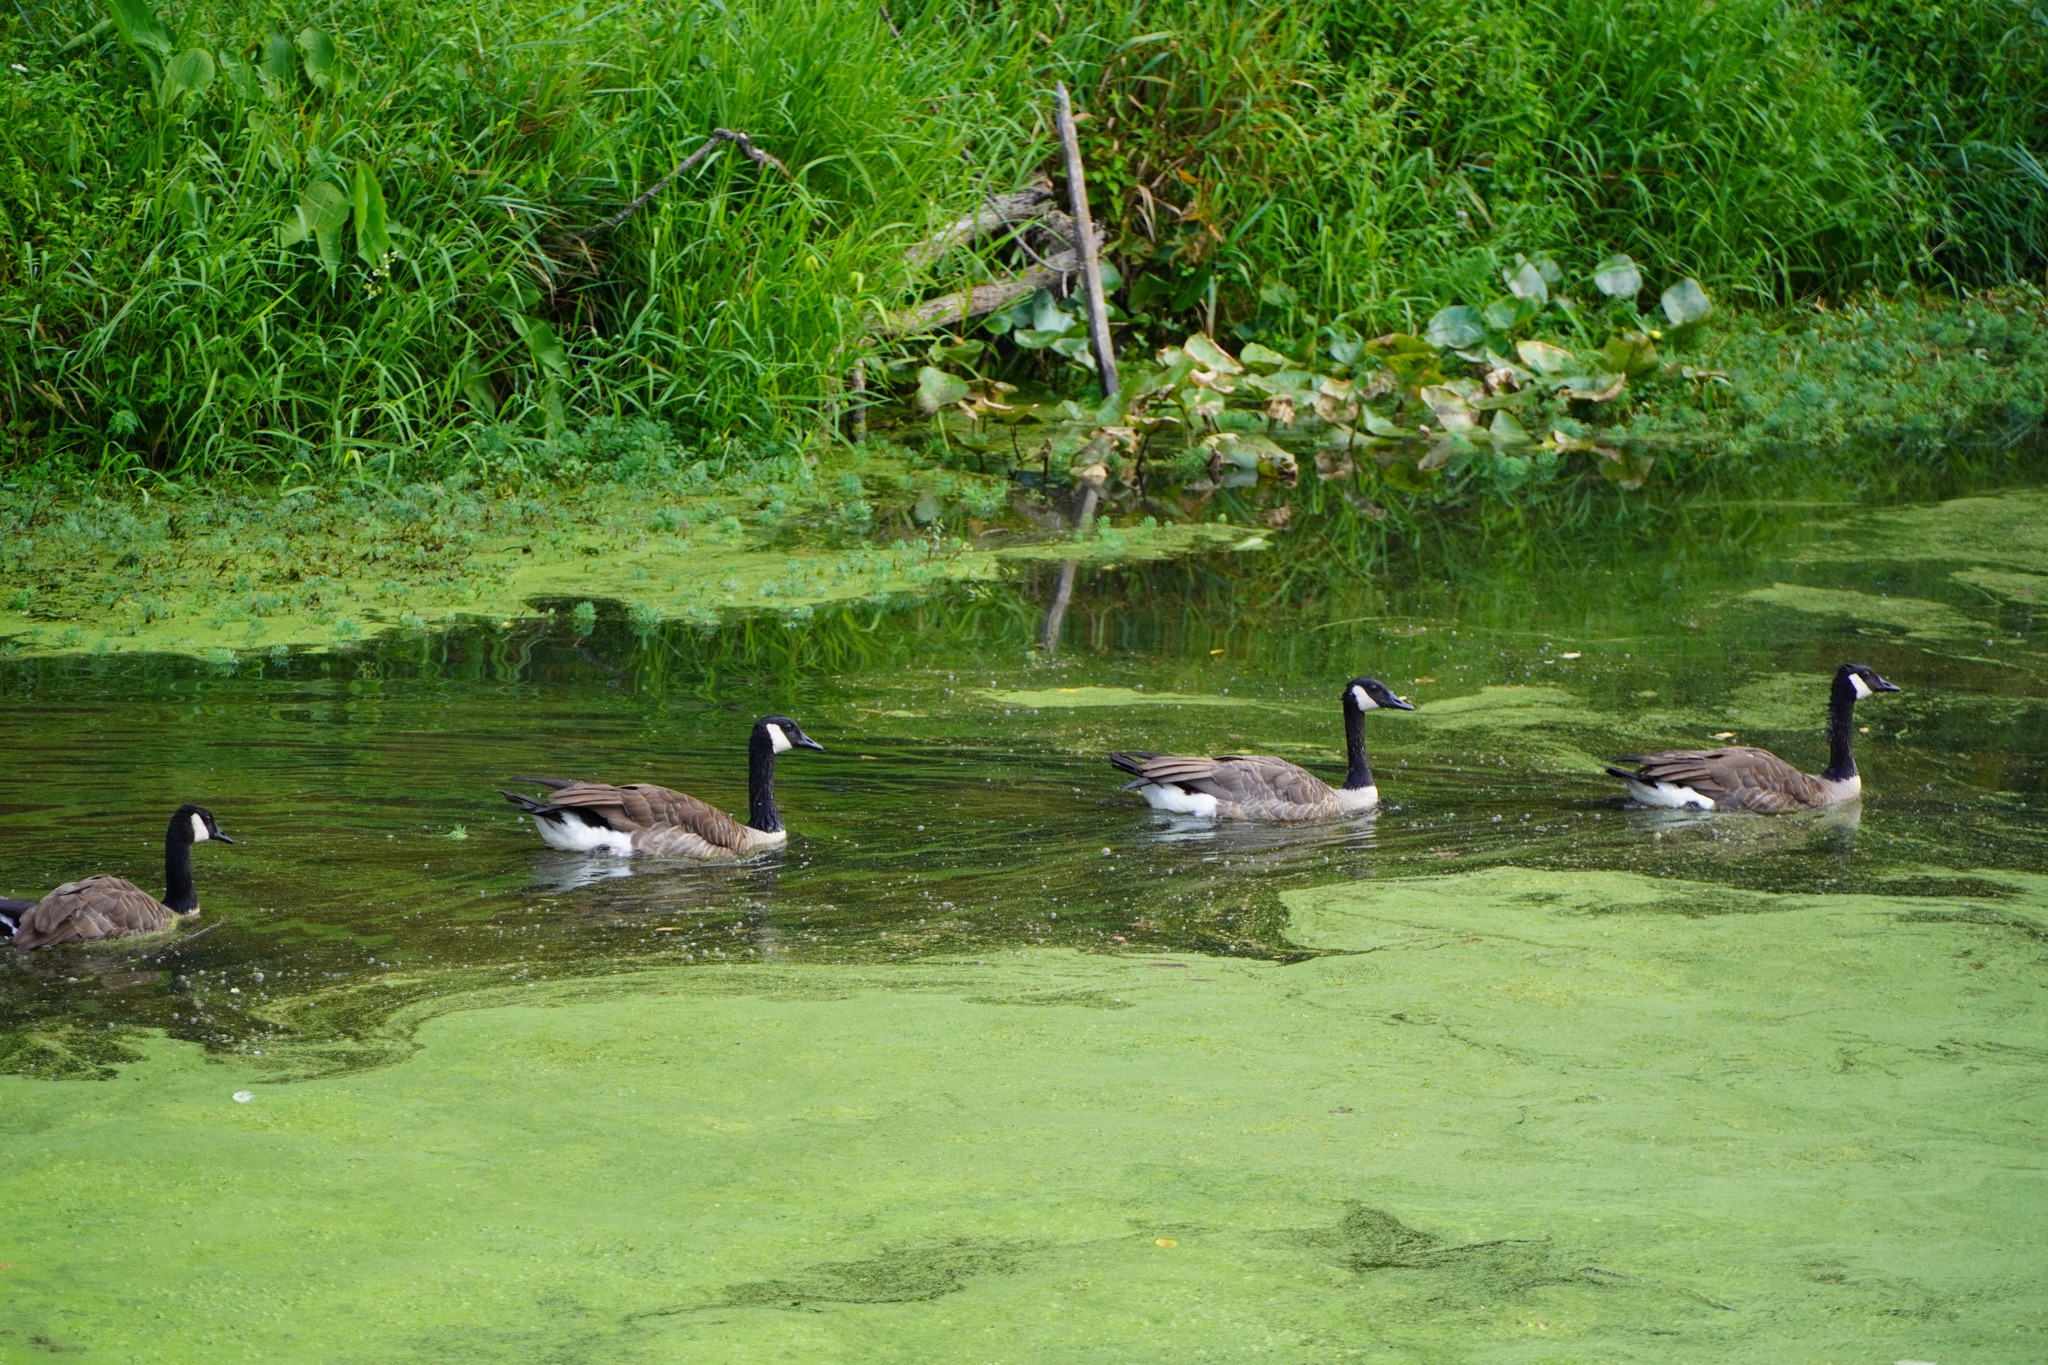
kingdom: Animalia
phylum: Chordata
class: Aves
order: Anseriformes
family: Anatidae
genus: Branta
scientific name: Branta canadensis
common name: Canada goose
